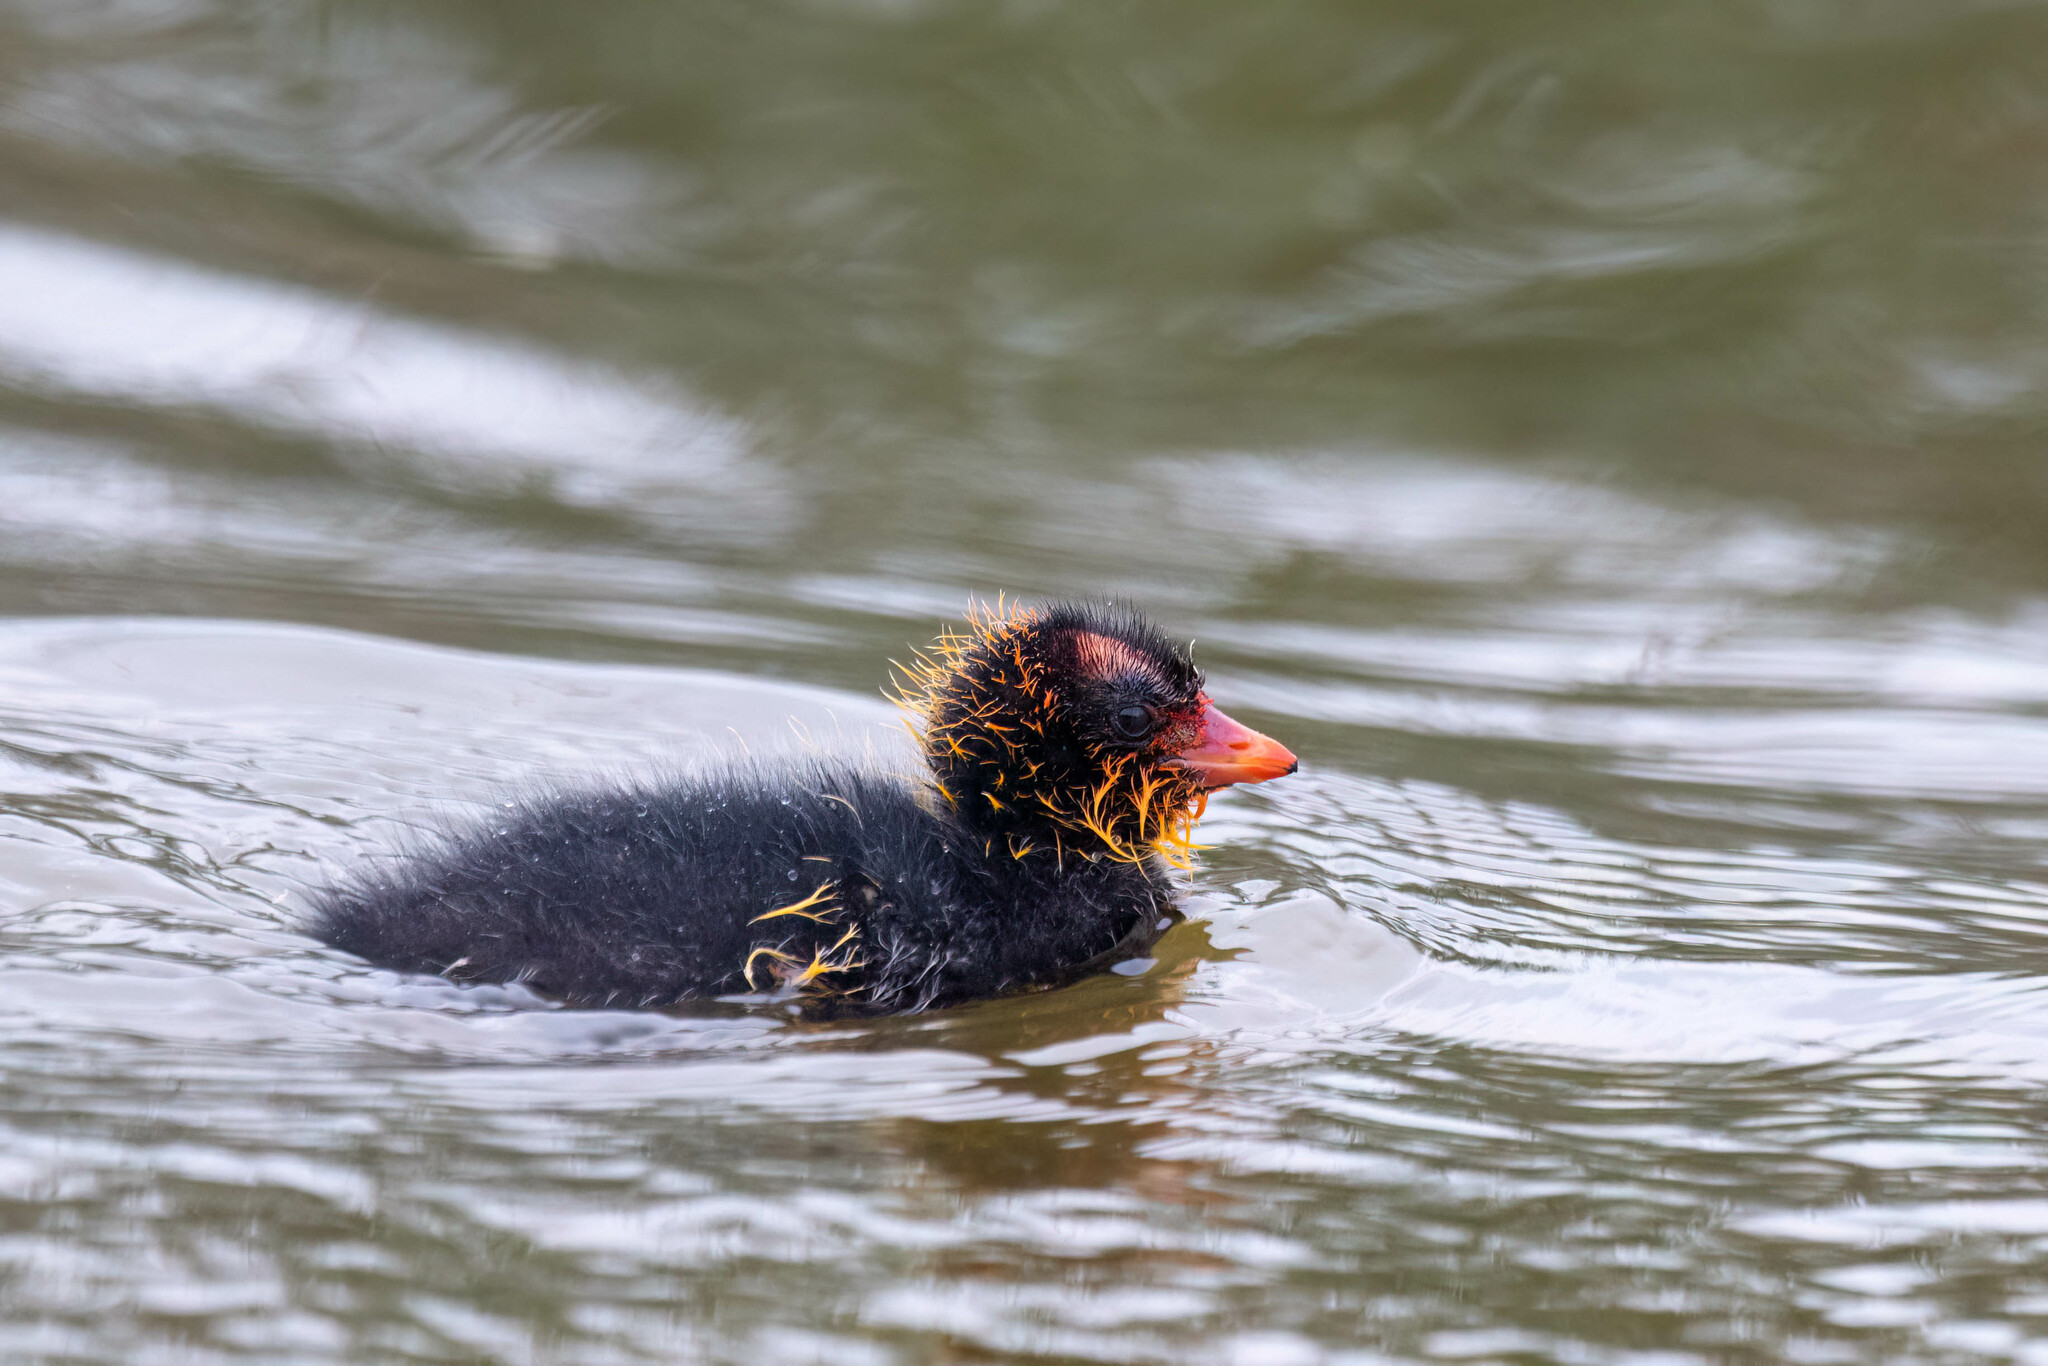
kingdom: Animalia
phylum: Chordata
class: Aves
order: Gruiformes
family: Rallidae
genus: Fulica
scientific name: Fulica americana
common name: American coot
